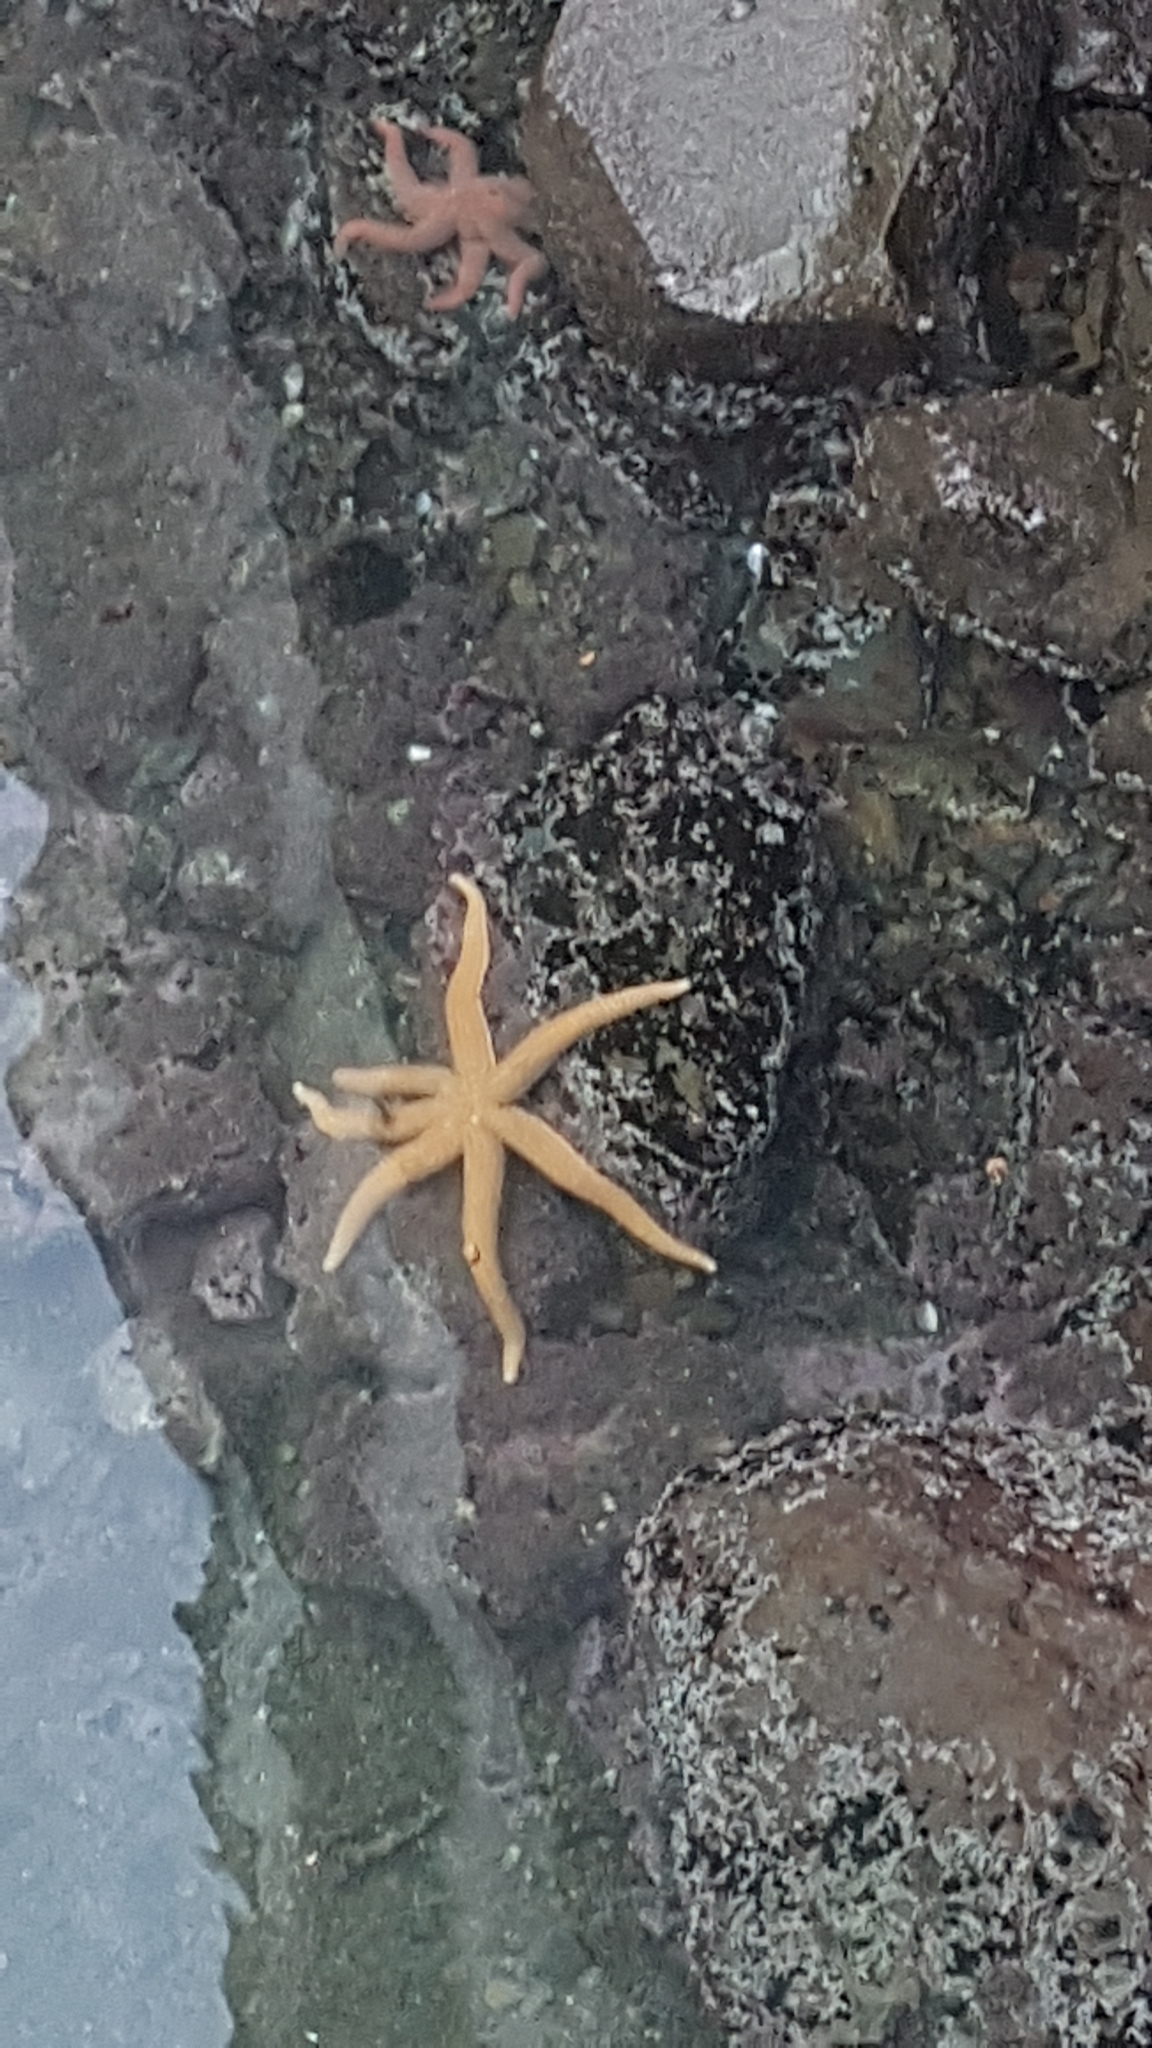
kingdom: Animalia
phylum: Echinodermata
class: Asteroidea
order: Forcipulatida
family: Asteriidae
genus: Astrostole
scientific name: Astrostole scabra
